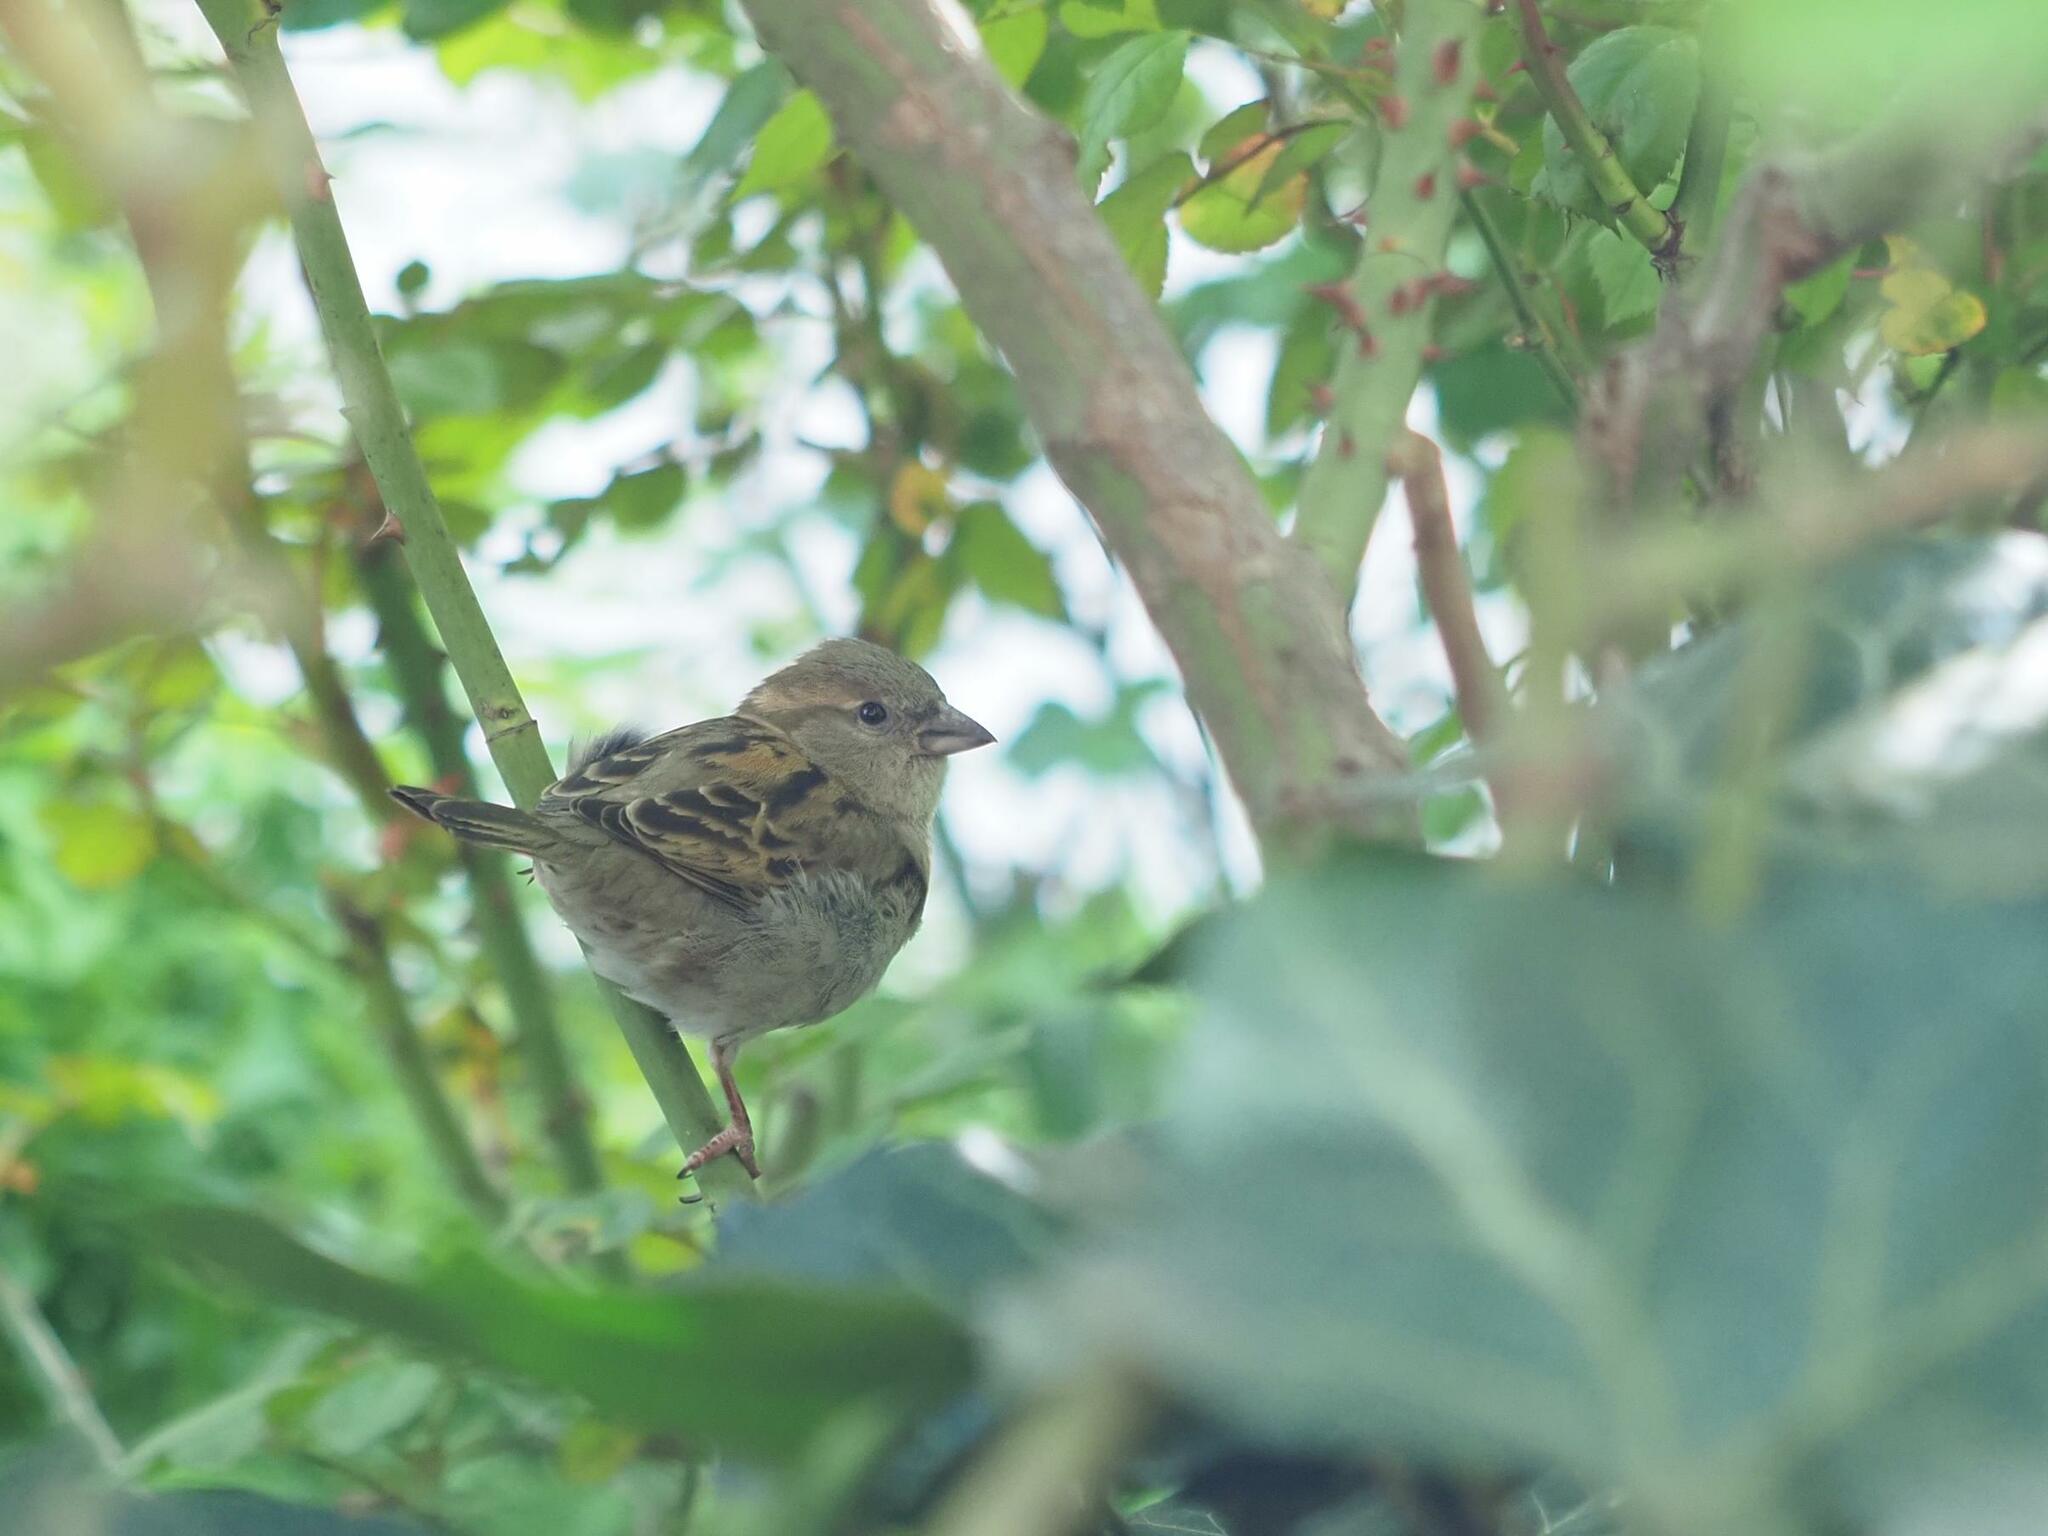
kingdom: Animalia
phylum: Chordata
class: Aves
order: Passeriformes
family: Passeridae
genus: Passer
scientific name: Passer domesticus
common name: House sparrow
